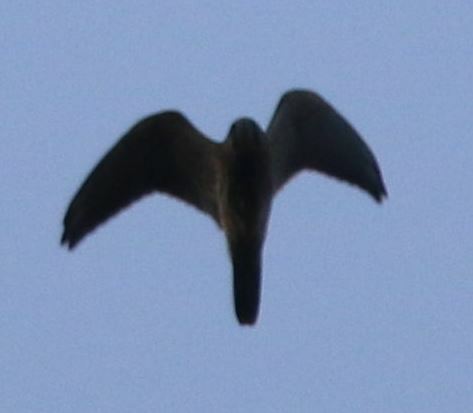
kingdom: Animalia
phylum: Chordata
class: Aves
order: Falconiformes
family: Falconidae
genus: Falco
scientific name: Falco tinnunculus
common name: Common kestrel
